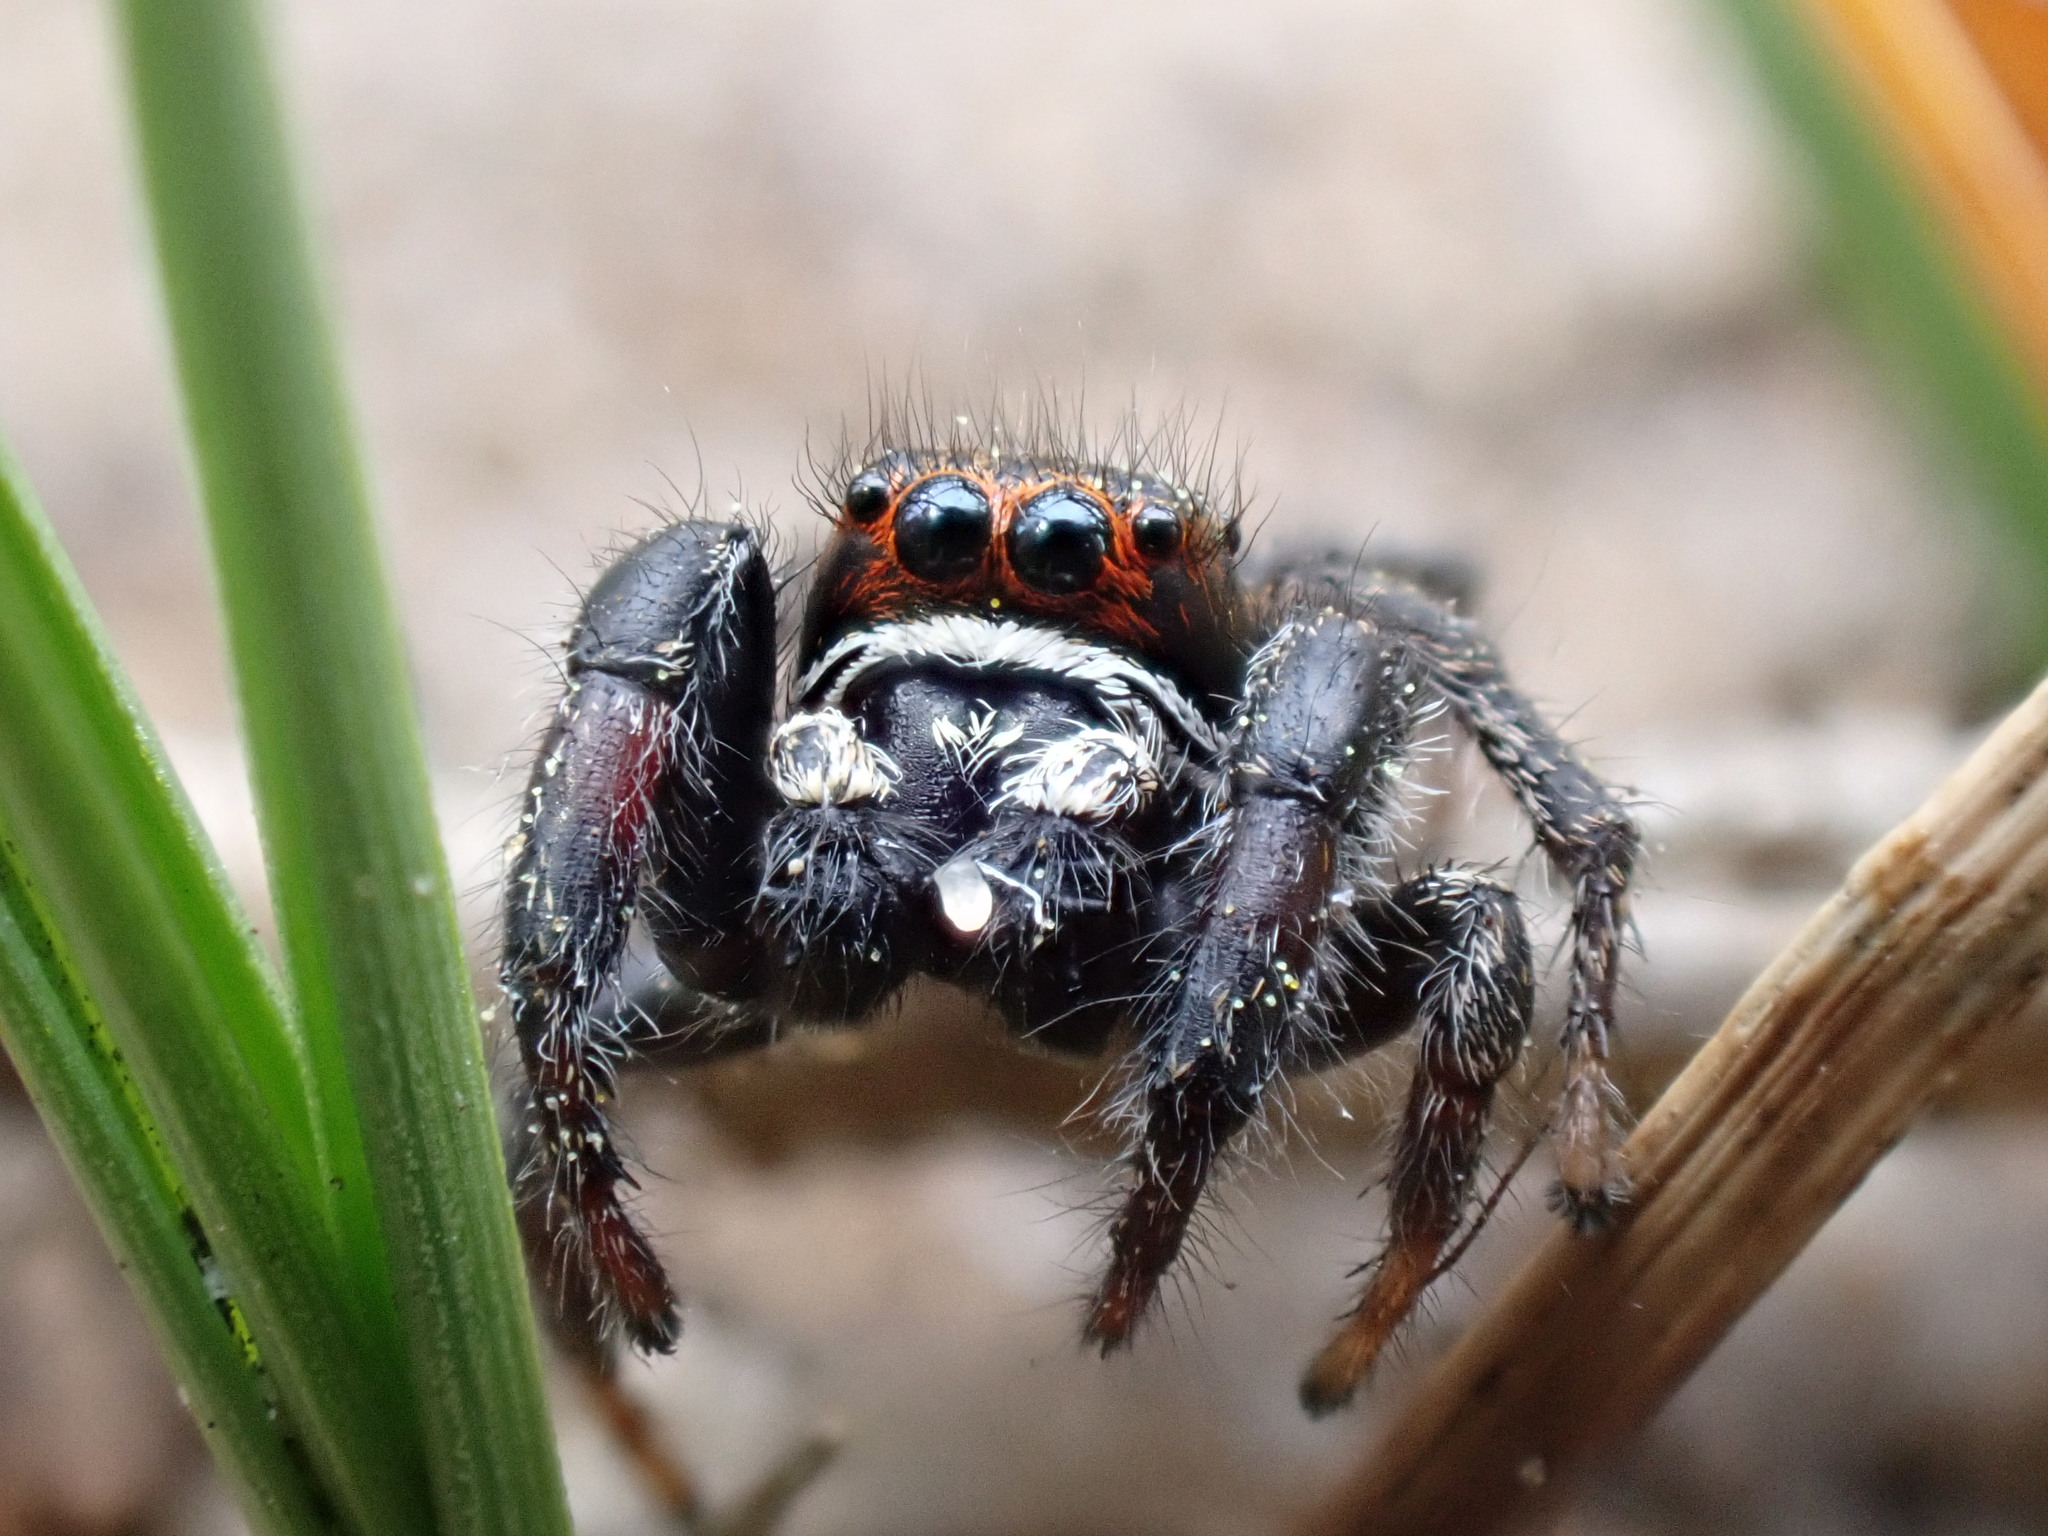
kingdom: Animalia
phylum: Arthropoda
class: Arachnida
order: Araneae
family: Salticidae
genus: Pellenes
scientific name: Pellenes tripunctatus
